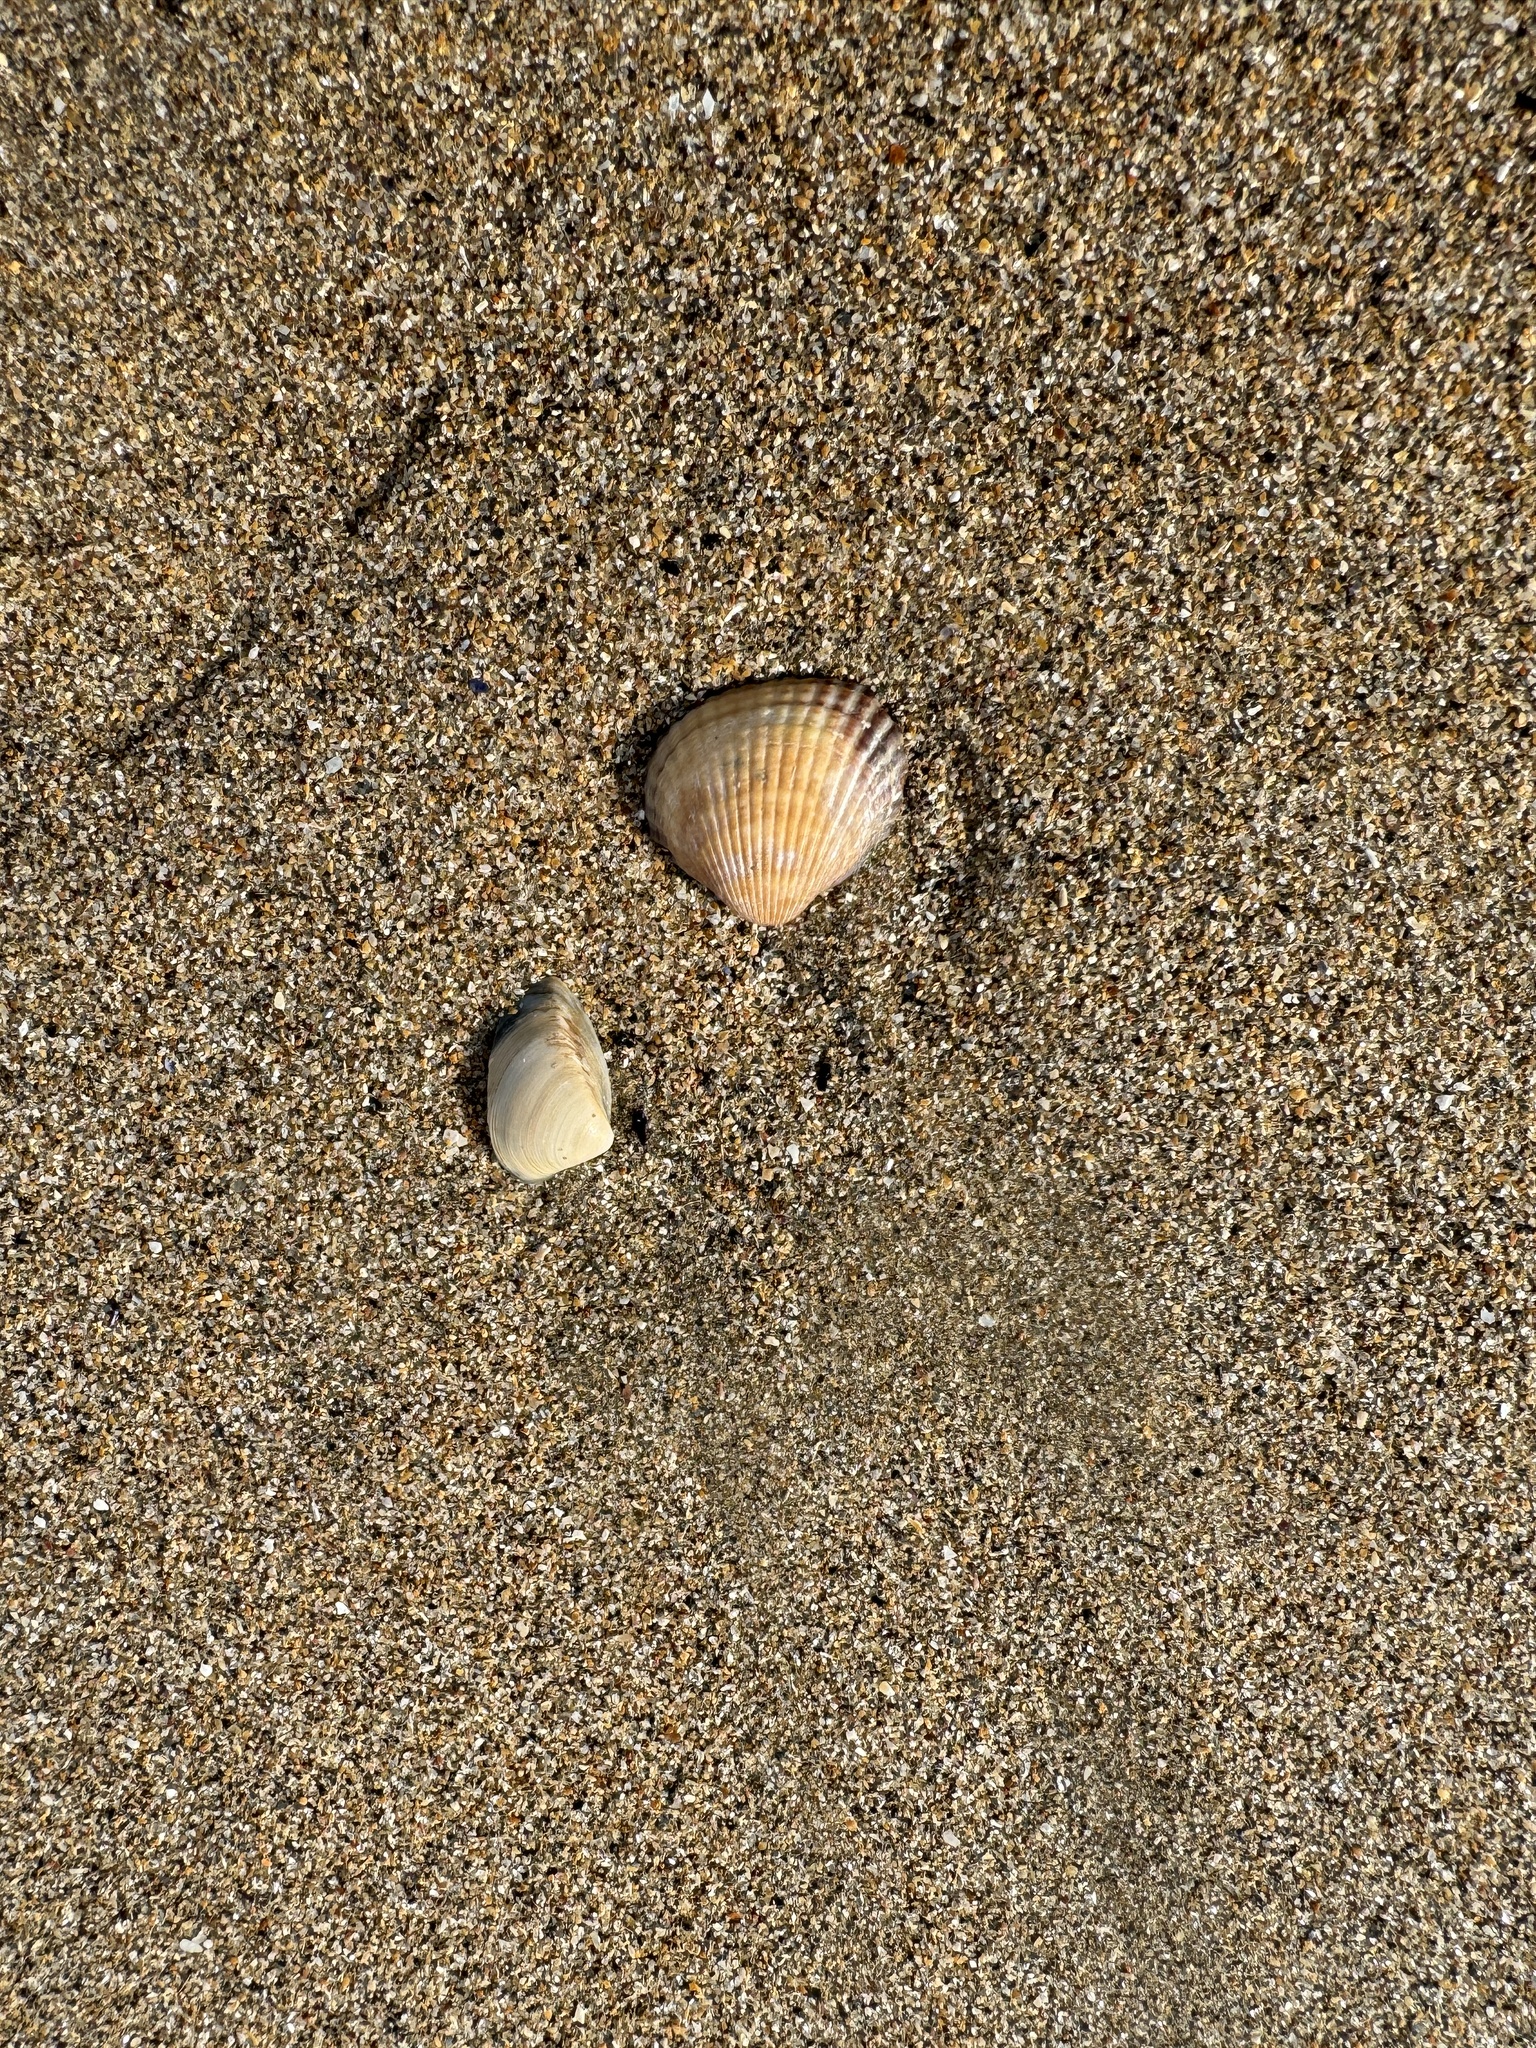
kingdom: Animalia
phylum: Mollusca
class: Bivalvia
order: Cardiida
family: Cardiidae
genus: Cerastoderma
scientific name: Cerastoderma edule
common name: Common cockle
